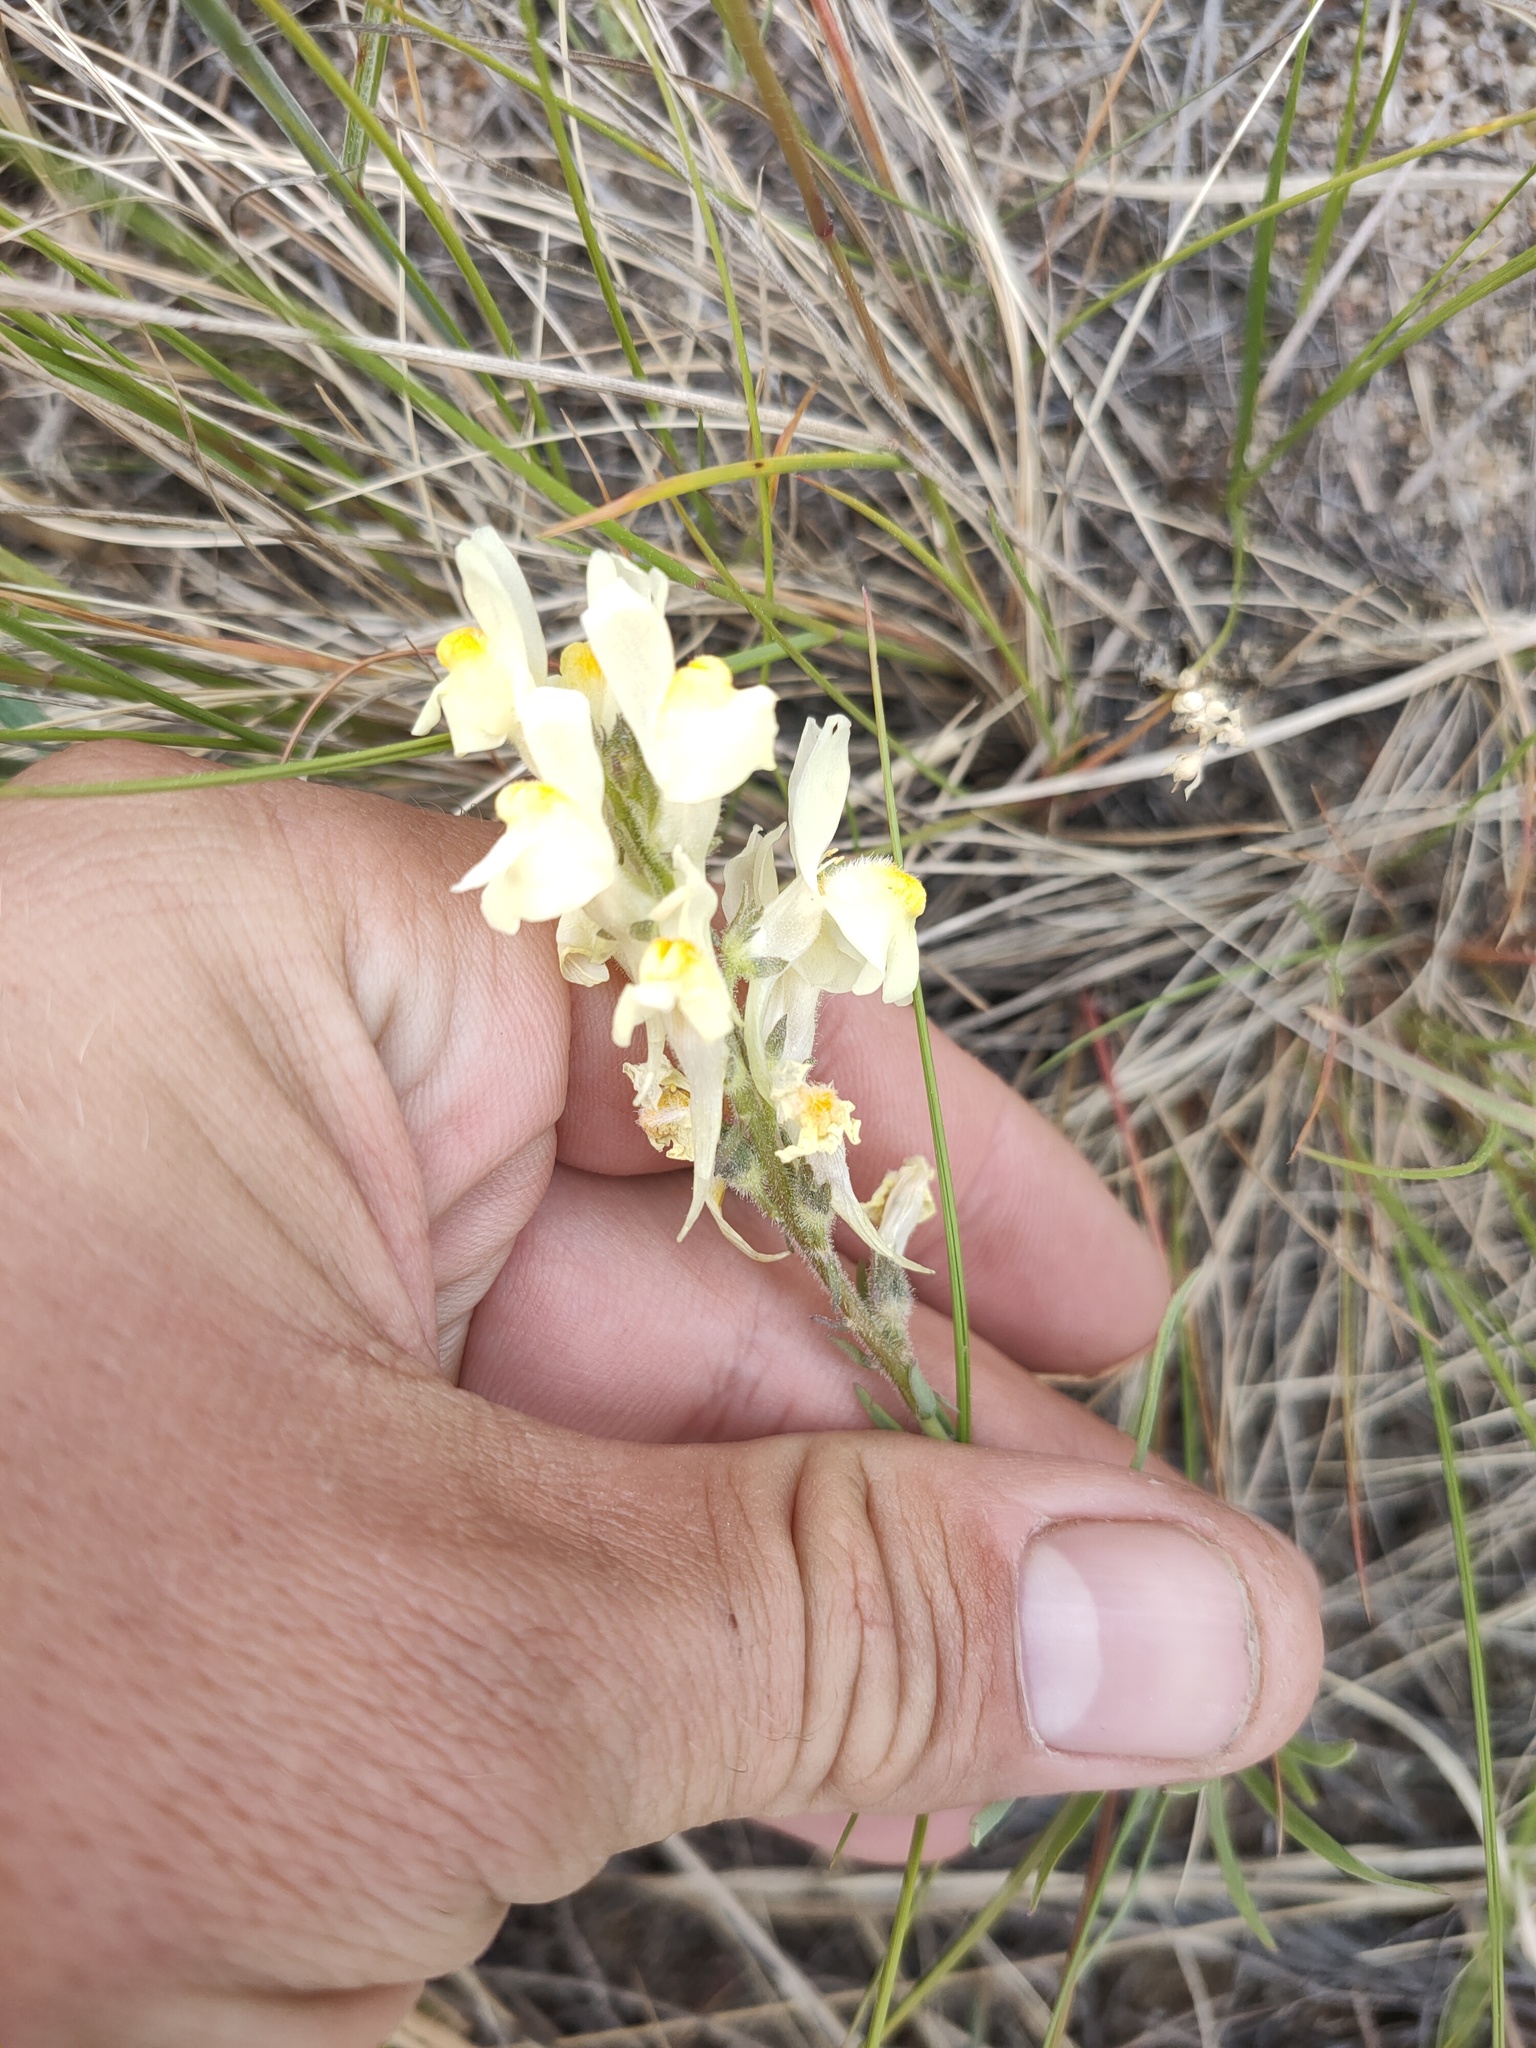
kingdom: Plantae
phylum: Tracheophyta
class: Magnoliopsida
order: Lamiales
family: Plantaginaceae
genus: Linaria
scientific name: Linaria buriatica
